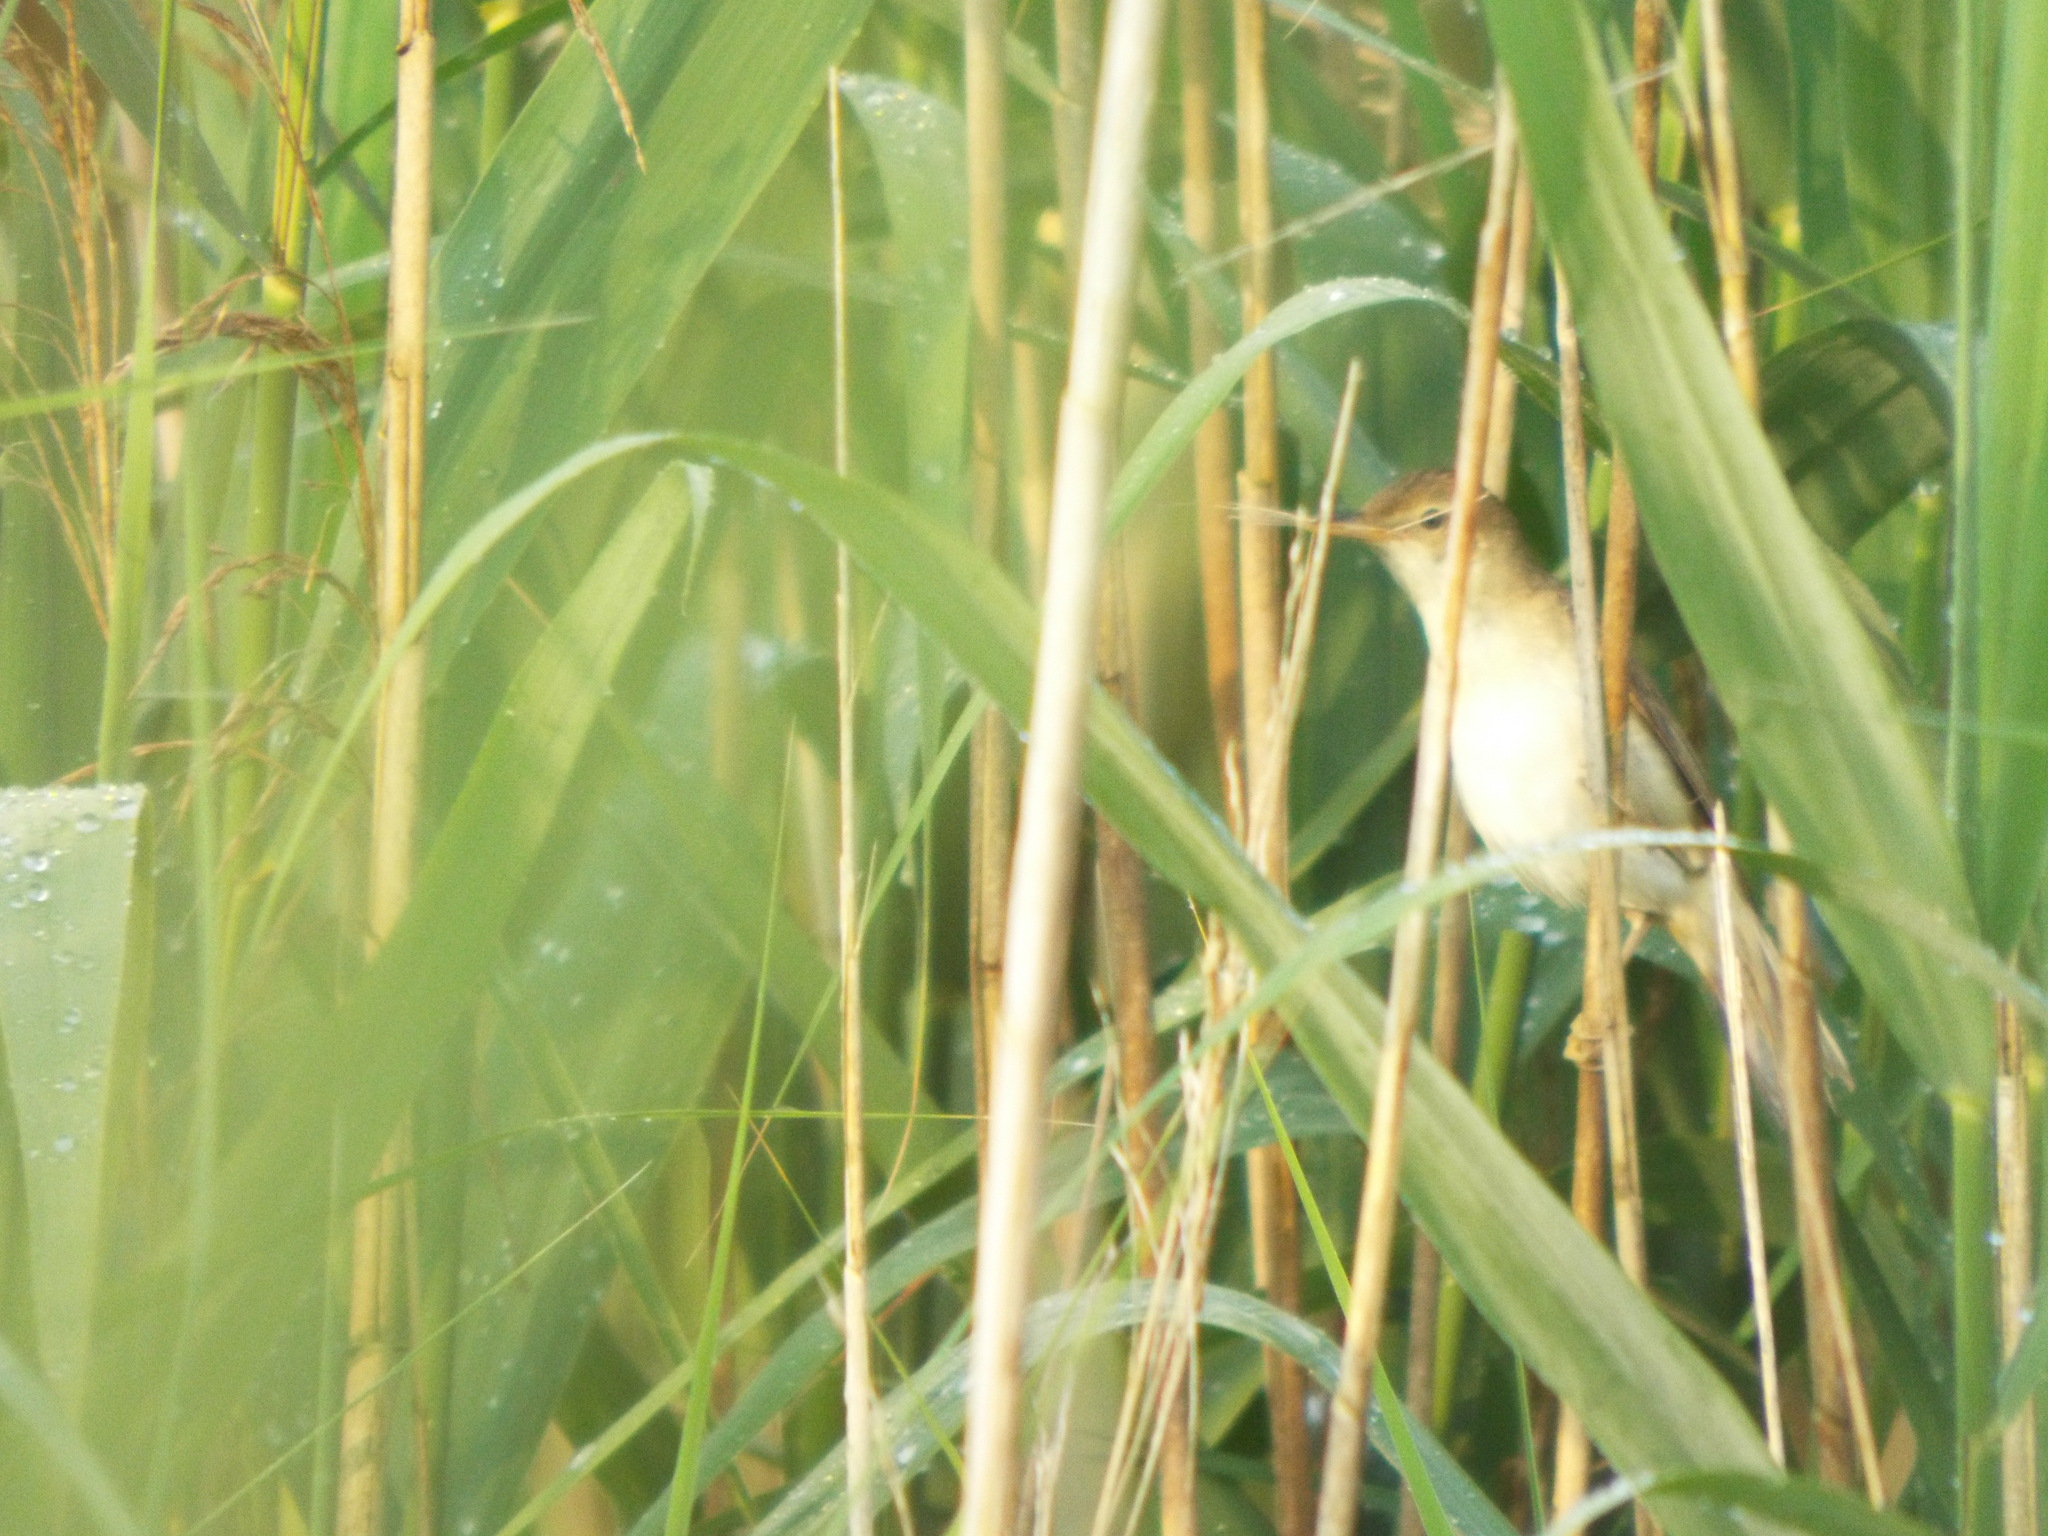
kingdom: Animalia
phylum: Chordata
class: Aves
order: Passeriformes
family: Acrocephalidae
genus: Acrocephalus
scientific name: Acrocephalus arundinaceus
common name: Great reed warbler
